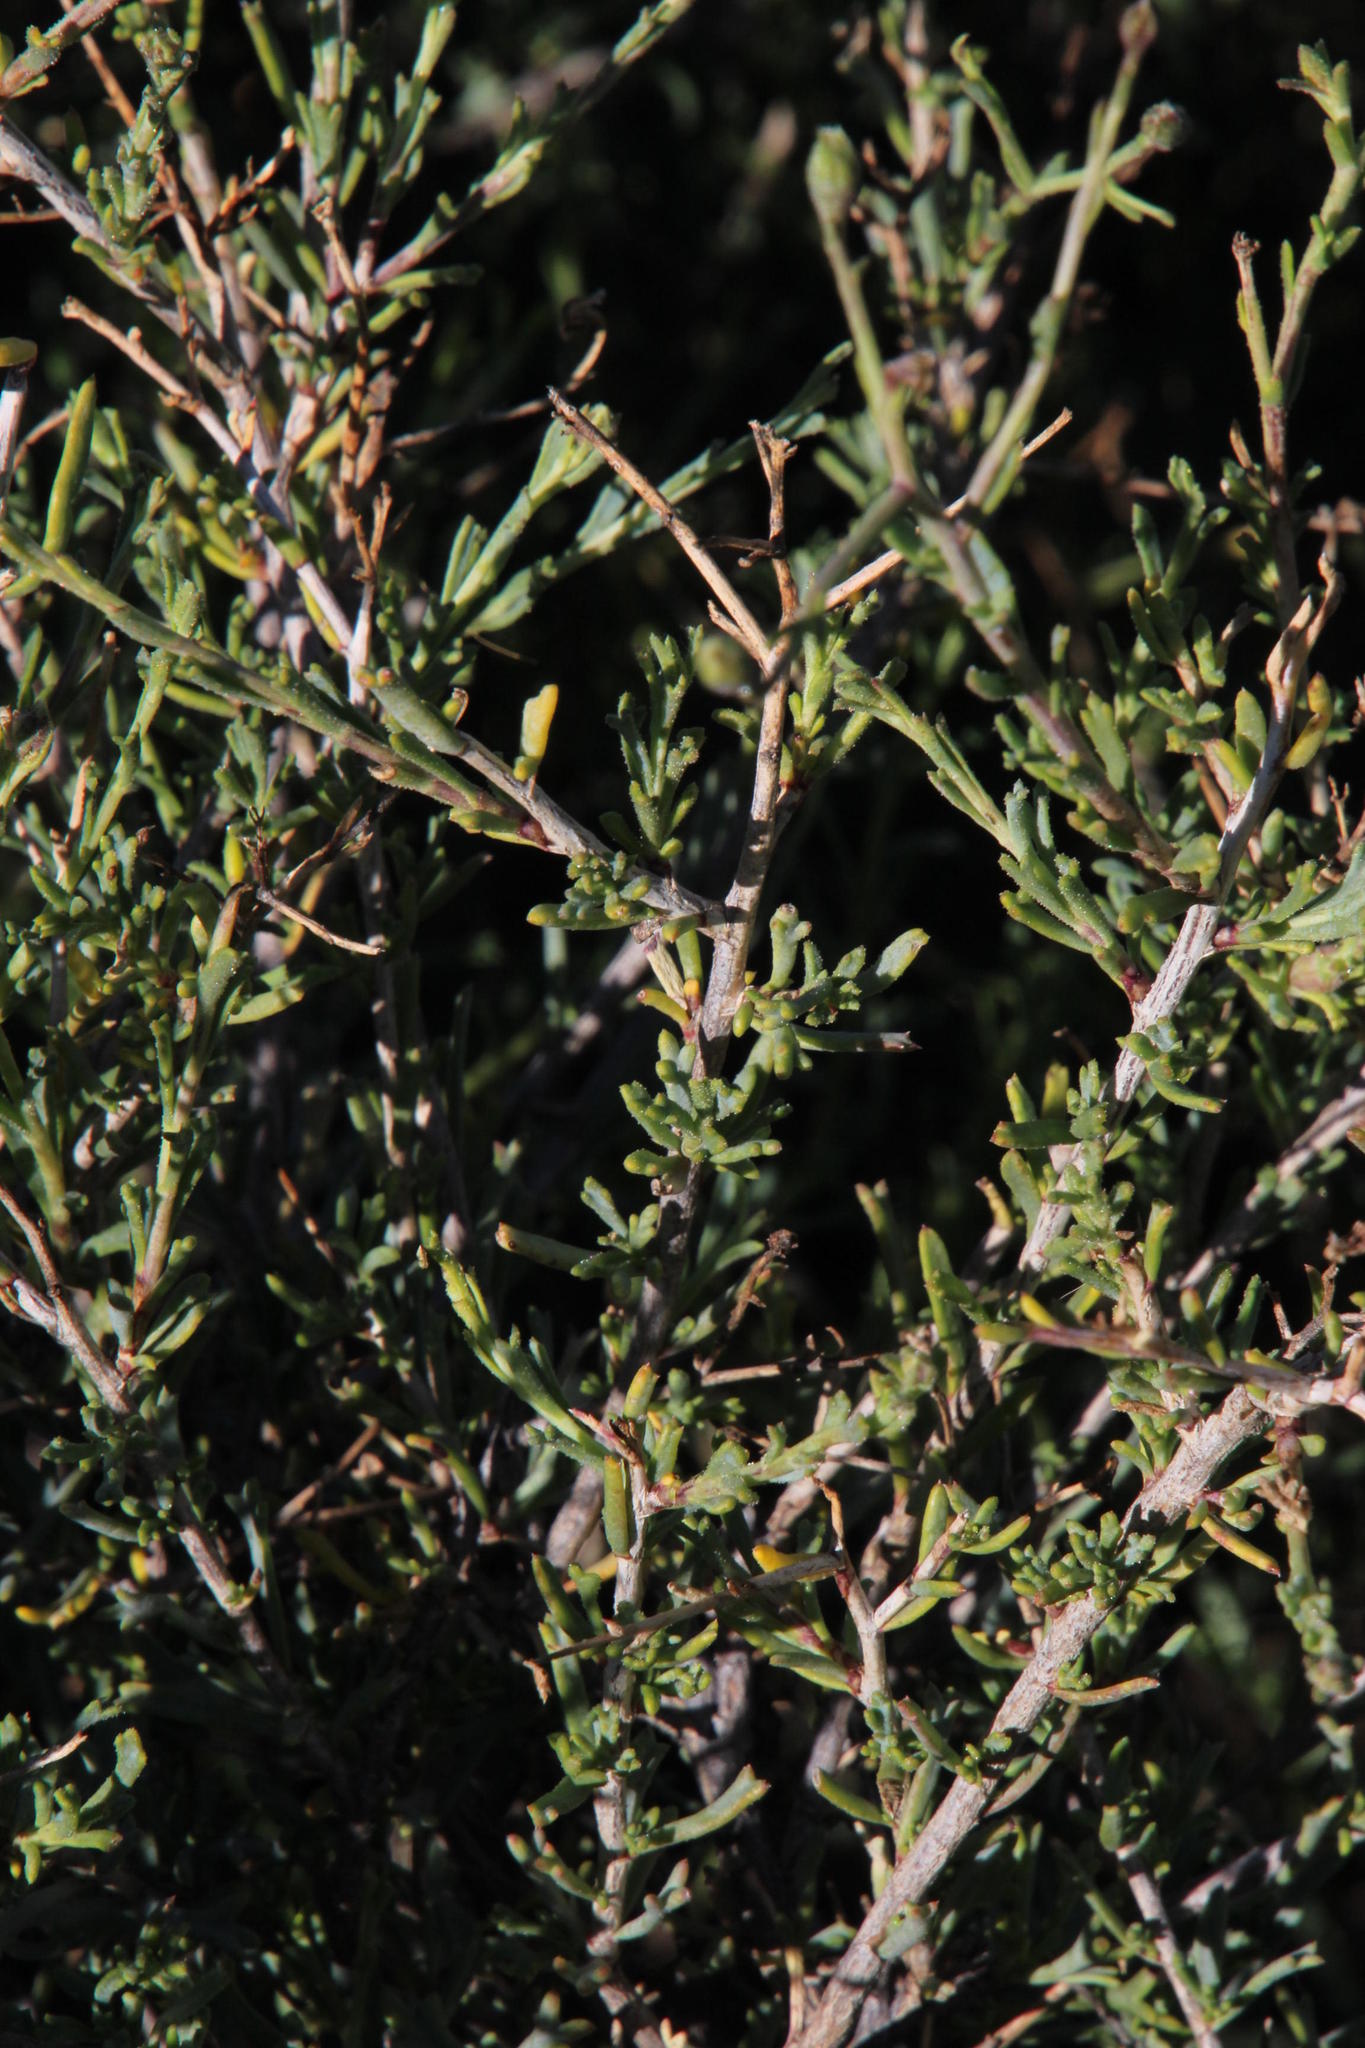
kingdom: Plantae
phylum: Tracheophyta
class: Magnoliopsida
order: Asterales
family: Asteraceae
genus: Osteospermum
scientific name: Osteospermum spinescens
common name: Sunflower
